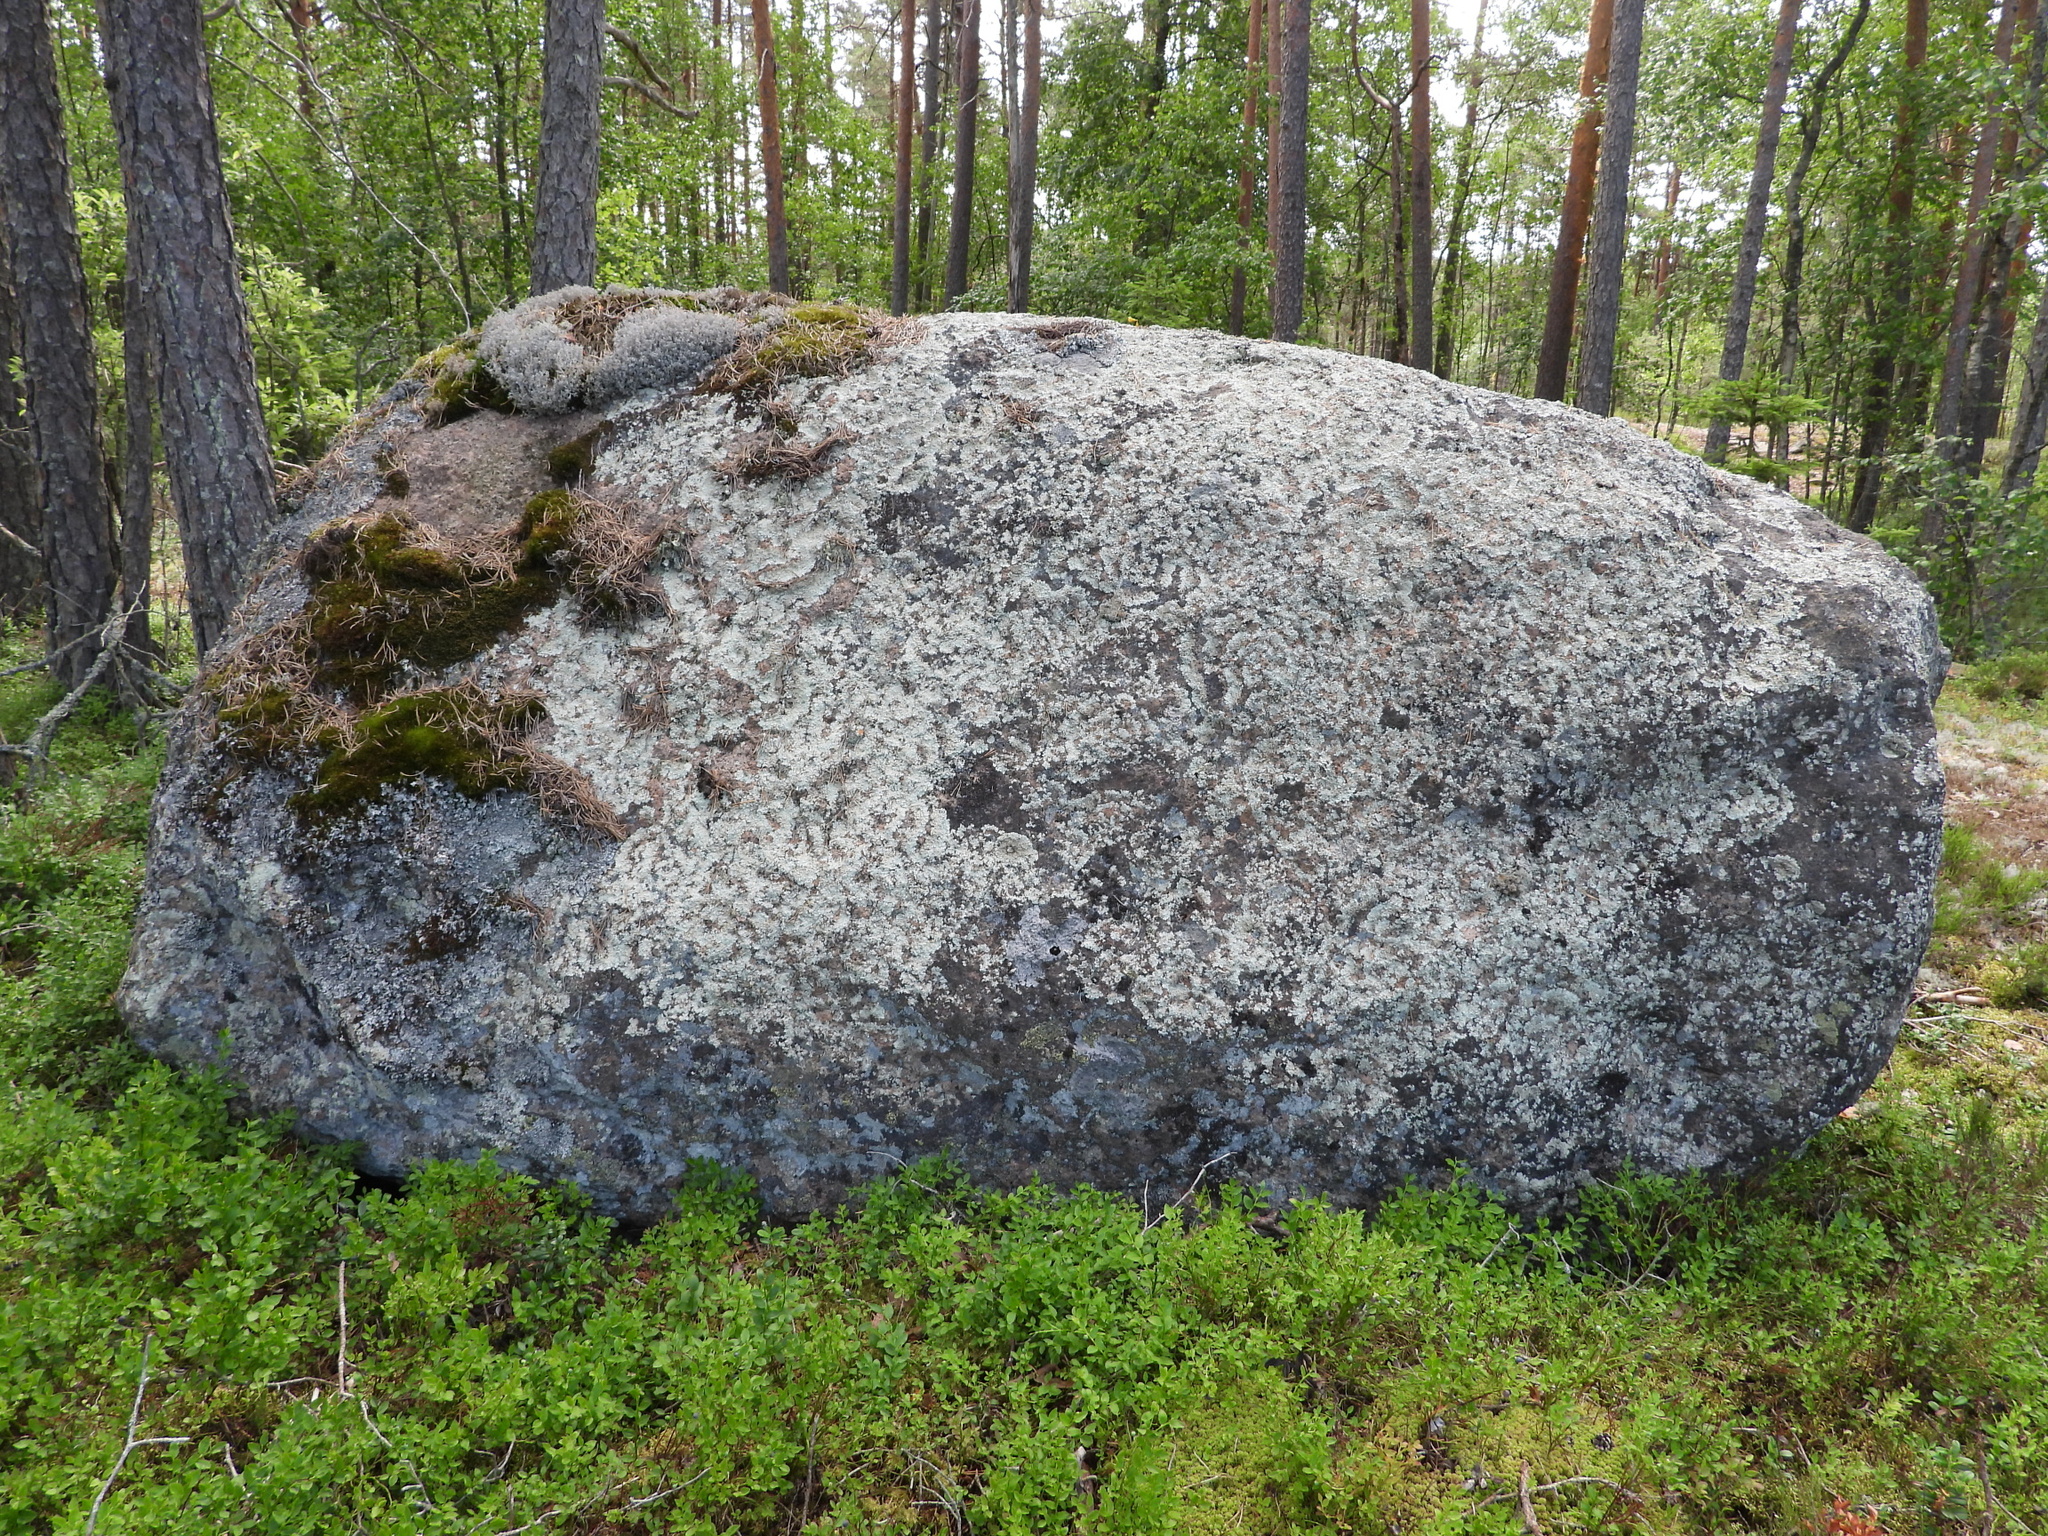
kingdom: Fungi
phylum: Ascomycota
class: Lecanoromycetes
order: Lecanorales
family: Parmeliaceae
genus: Arctoparmelia
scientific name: Arctoparmelia centrifuga
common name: Concentric ring lichen
